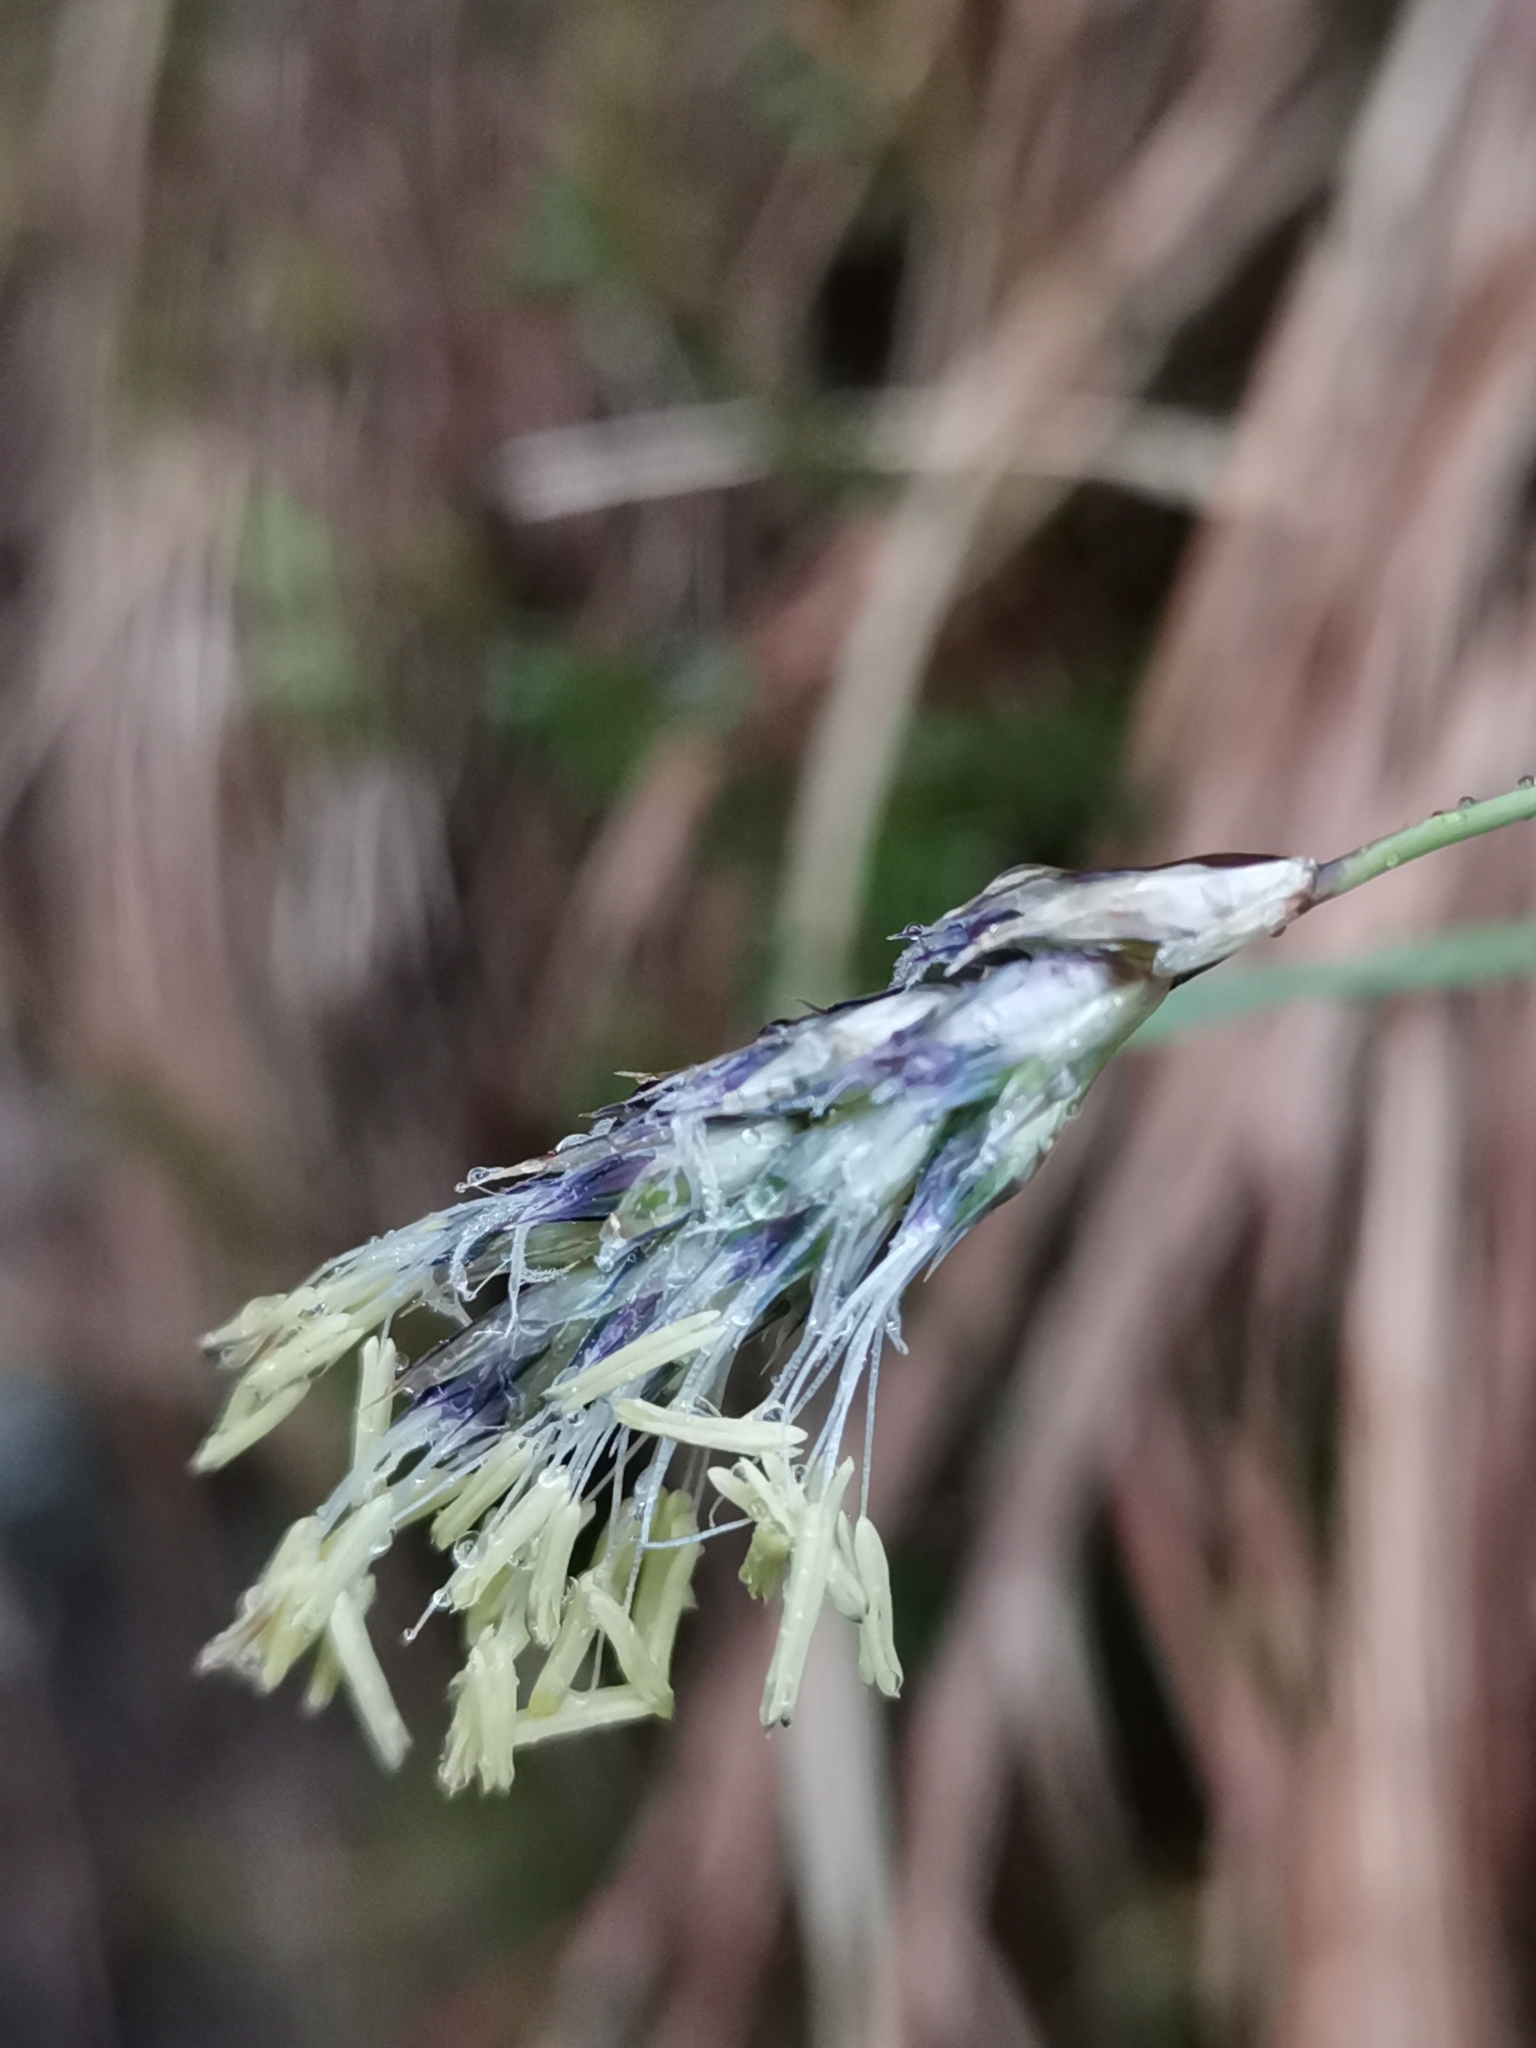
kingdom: Plantae
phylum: Tracheophyta
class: Liliopsida
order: Poales
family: Poaceae
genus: Sesleria
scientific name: Sesleria caerulea
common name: Blue moor-grass
